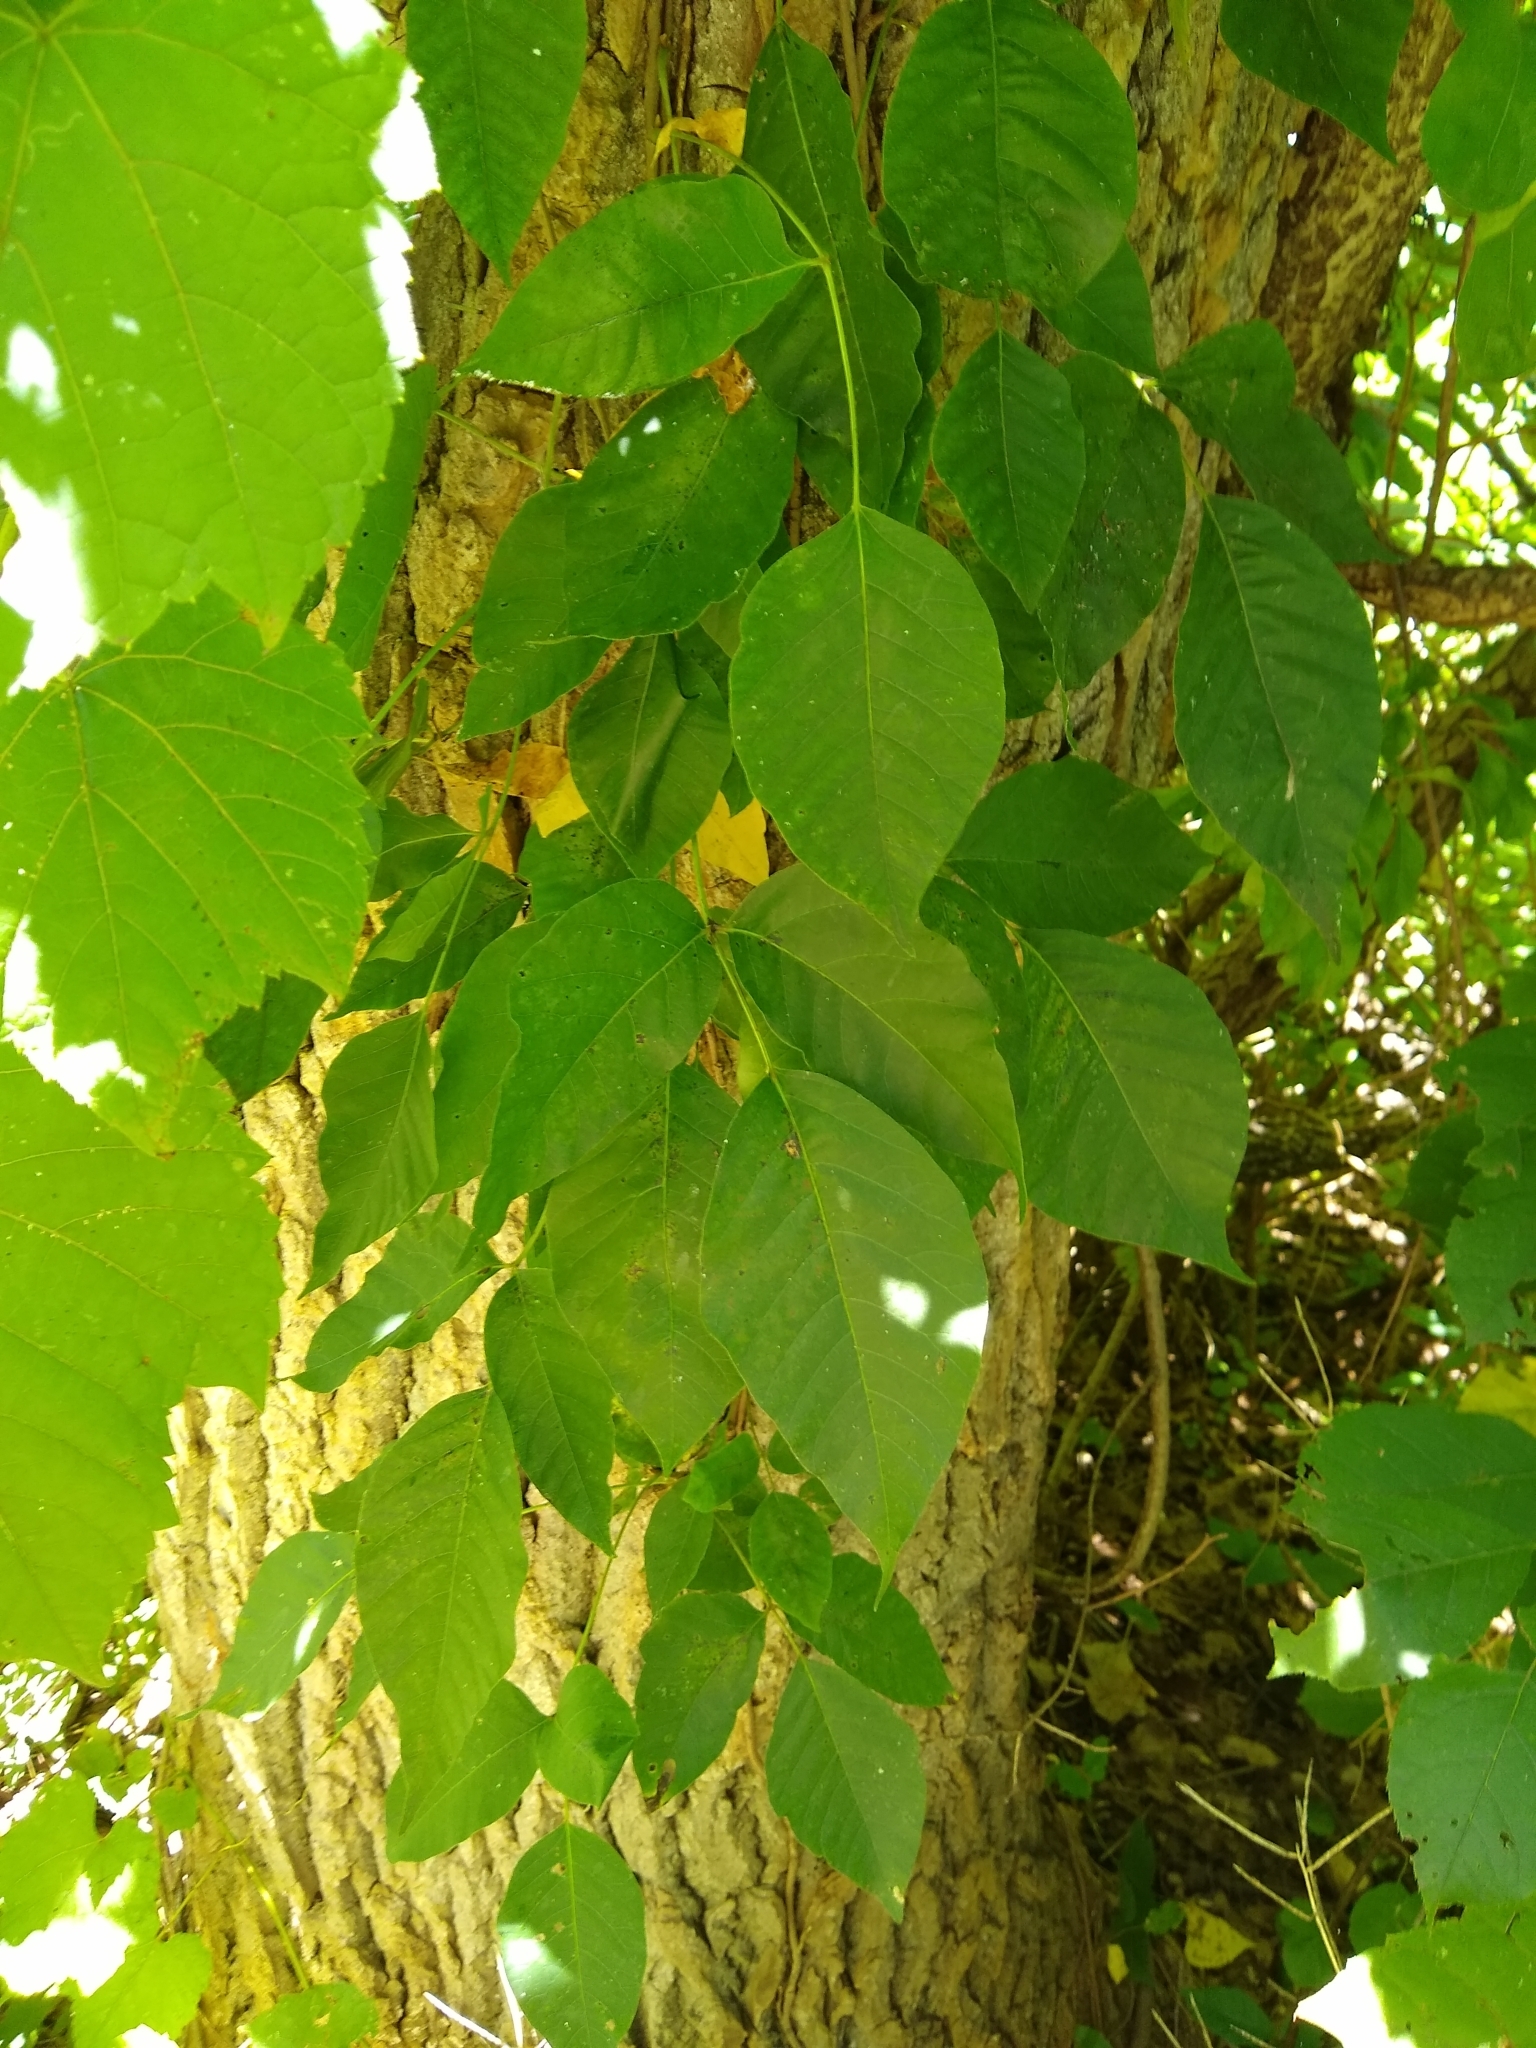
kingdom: Plantae
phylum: Tracheophyta
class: Magnoliopsida
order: Sapindales
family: Anacardiaceae
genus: Toxicodendron
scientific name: Toxicodendron radicans
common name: Poison ivy
